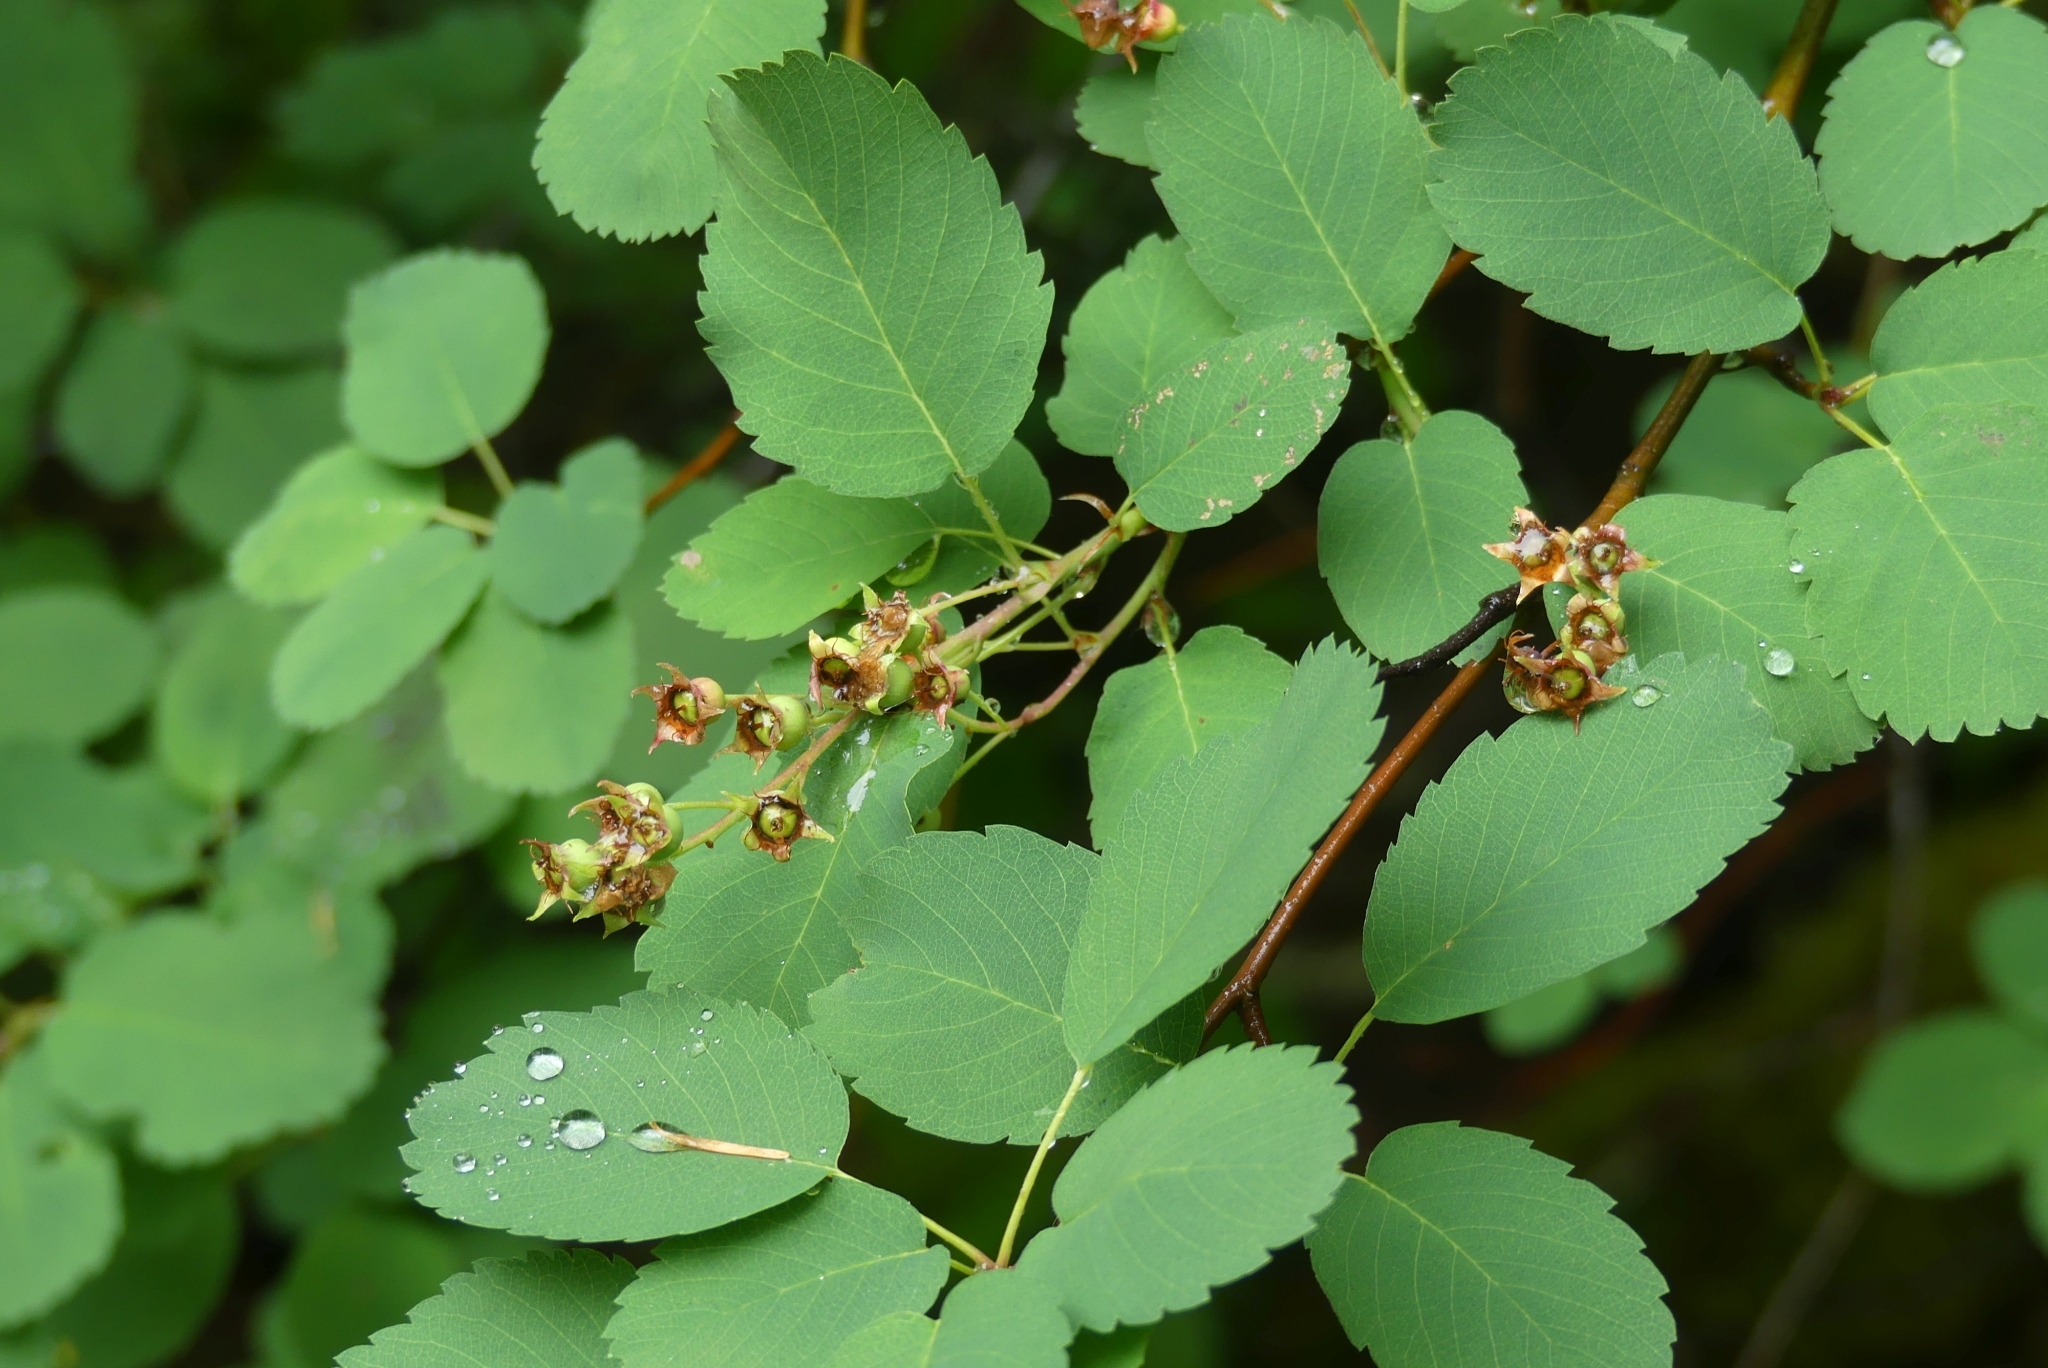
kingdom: Plantae
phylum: Tracheophyta
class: Magnoliopsida
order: Rosales
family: Rosaceae
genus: Amelanchier
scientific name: Amelanchier alnifolia
